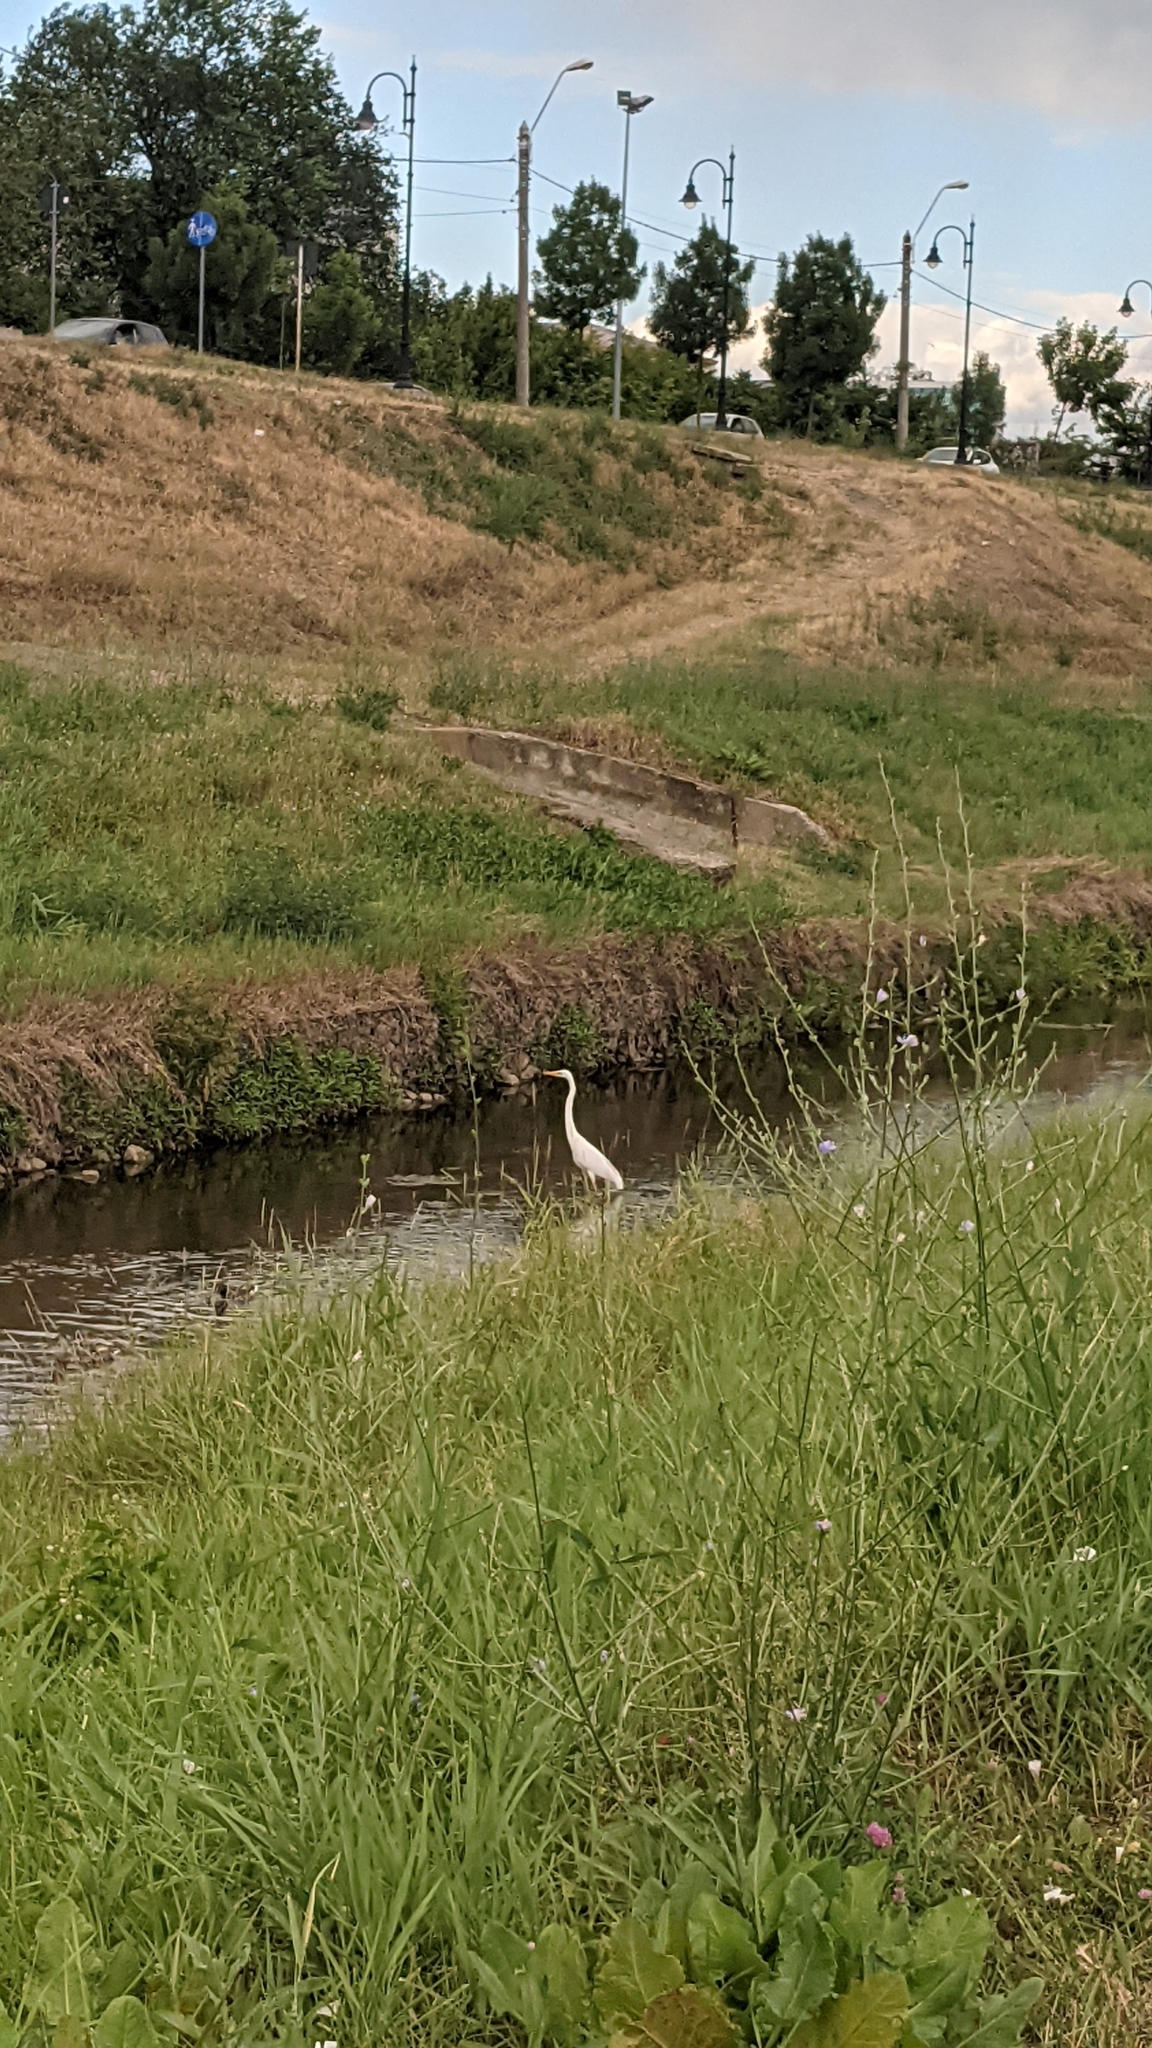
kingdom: Animalia
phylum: Chordata
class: Aves
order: Pelecaniformes
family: Ardeidae
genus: Ardea
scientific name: Ardea alba
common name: Great egret
